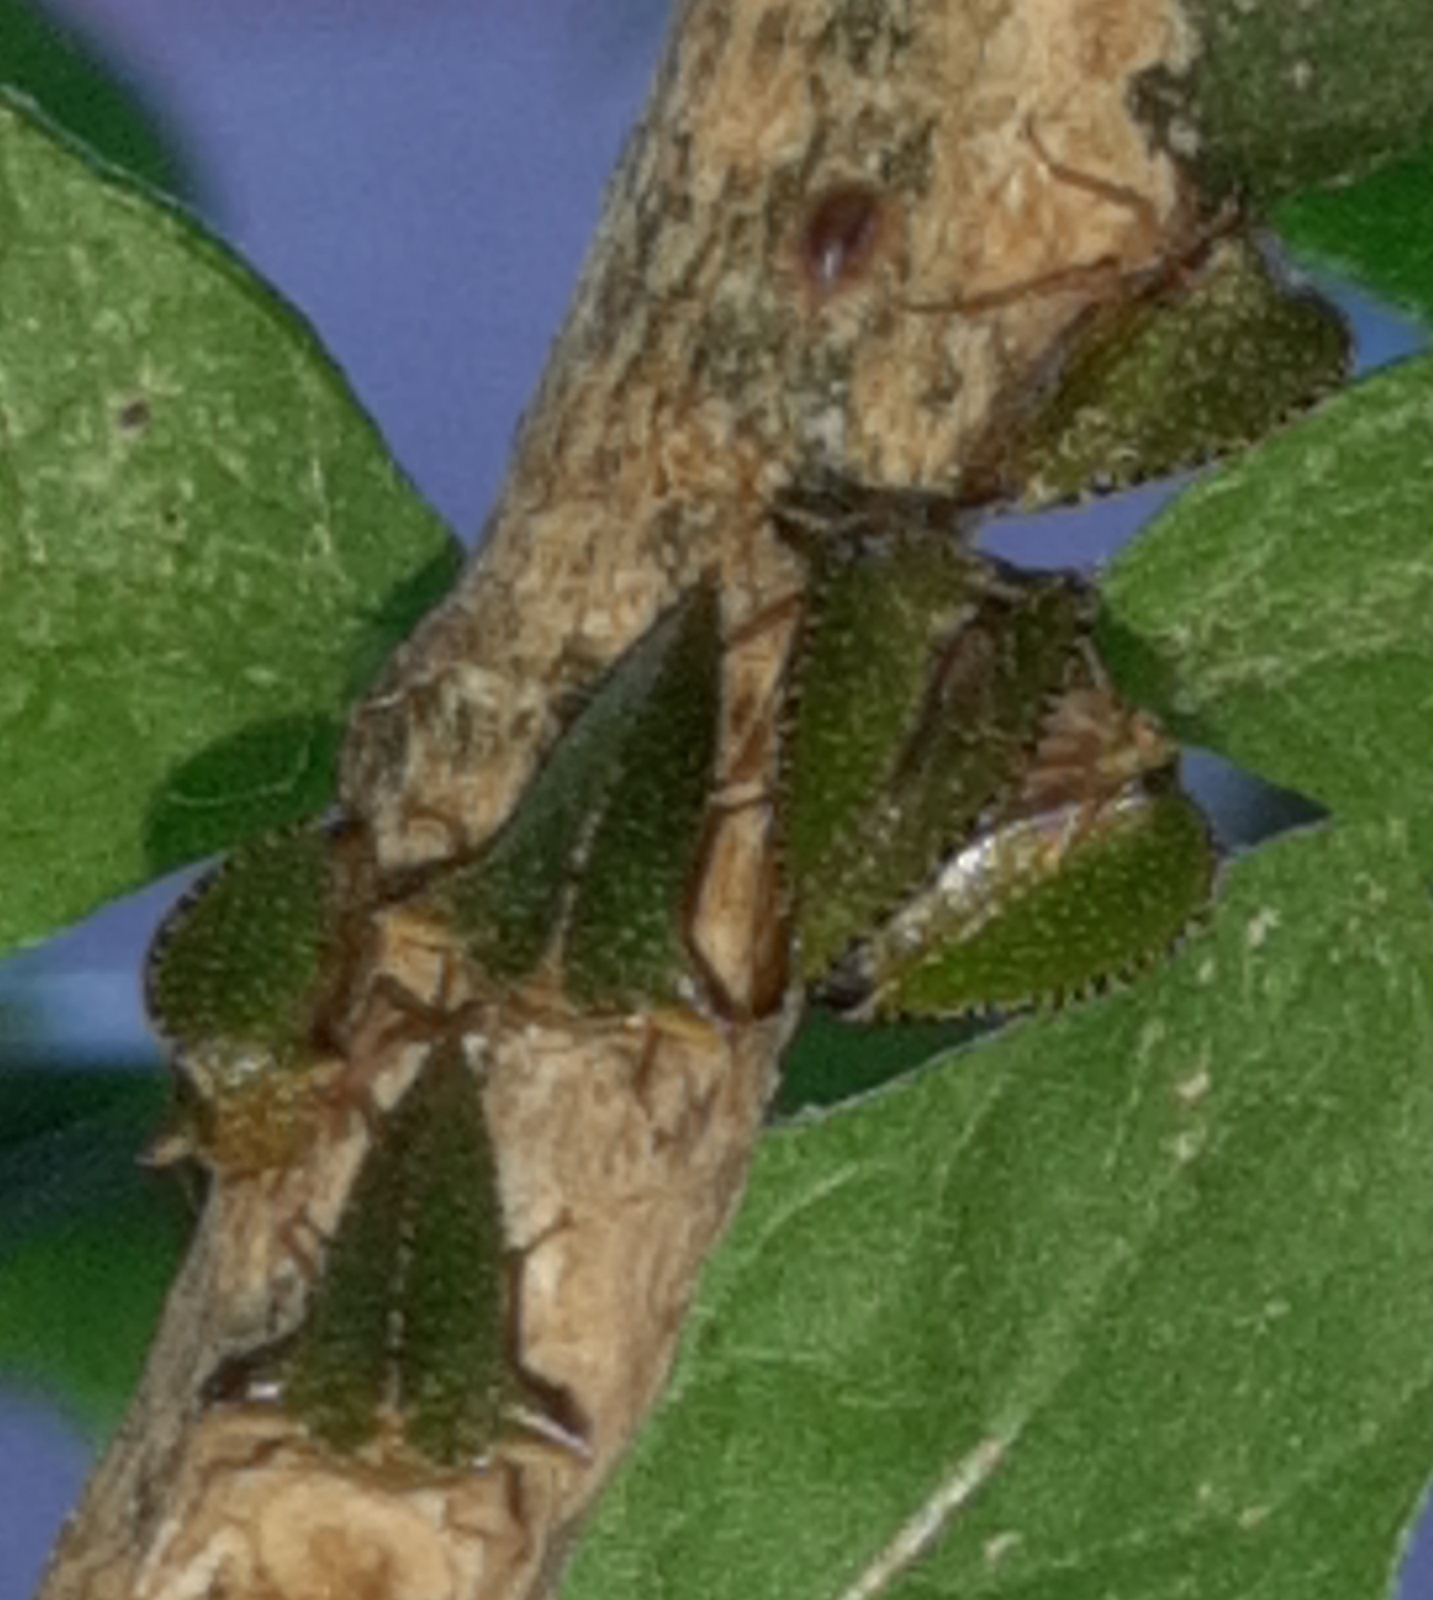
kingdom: Animalia
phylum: Arthropoda
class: Insecta
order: Hemiptera
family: Membracidae
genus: Antianthe
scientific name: Antianthe expansa
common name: Keeled tree hopper
